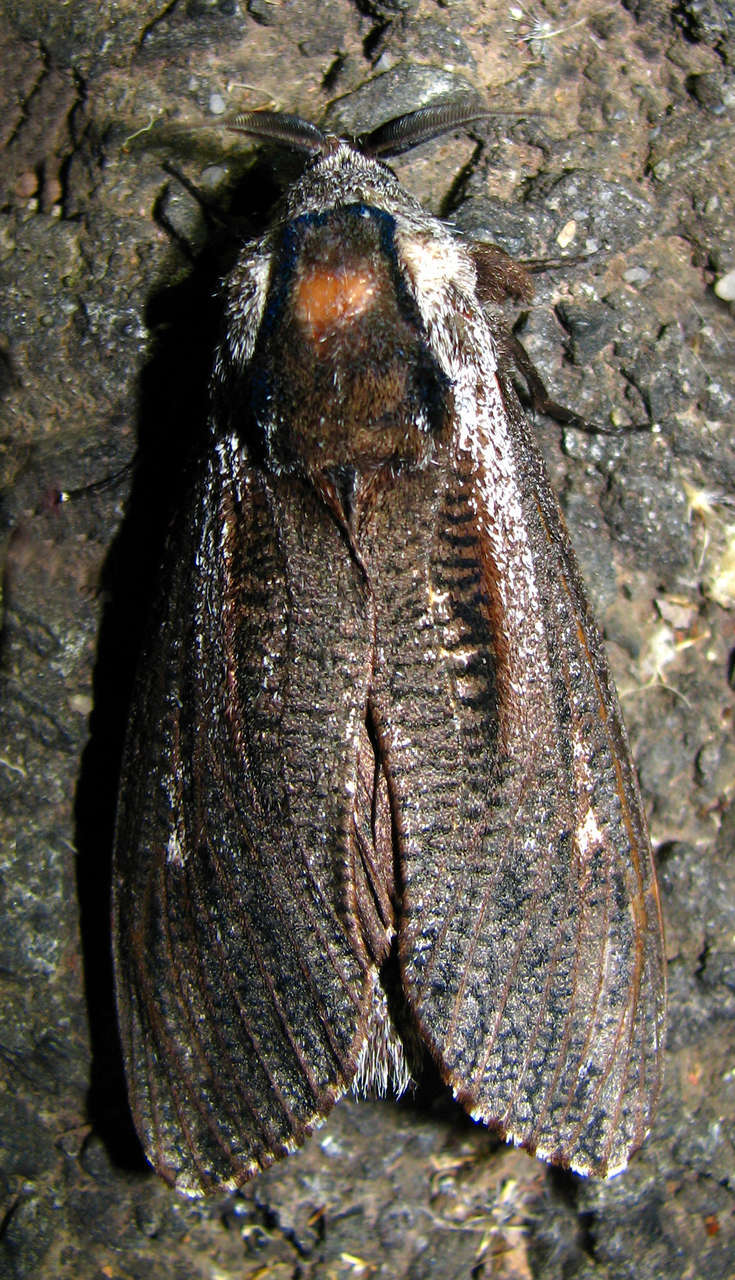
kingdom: Animalia
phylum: Arthropoda
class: Insecta
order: Lepidoptera
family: Cossidae
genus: Endoxyla
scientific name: Endoxyla encalypti
